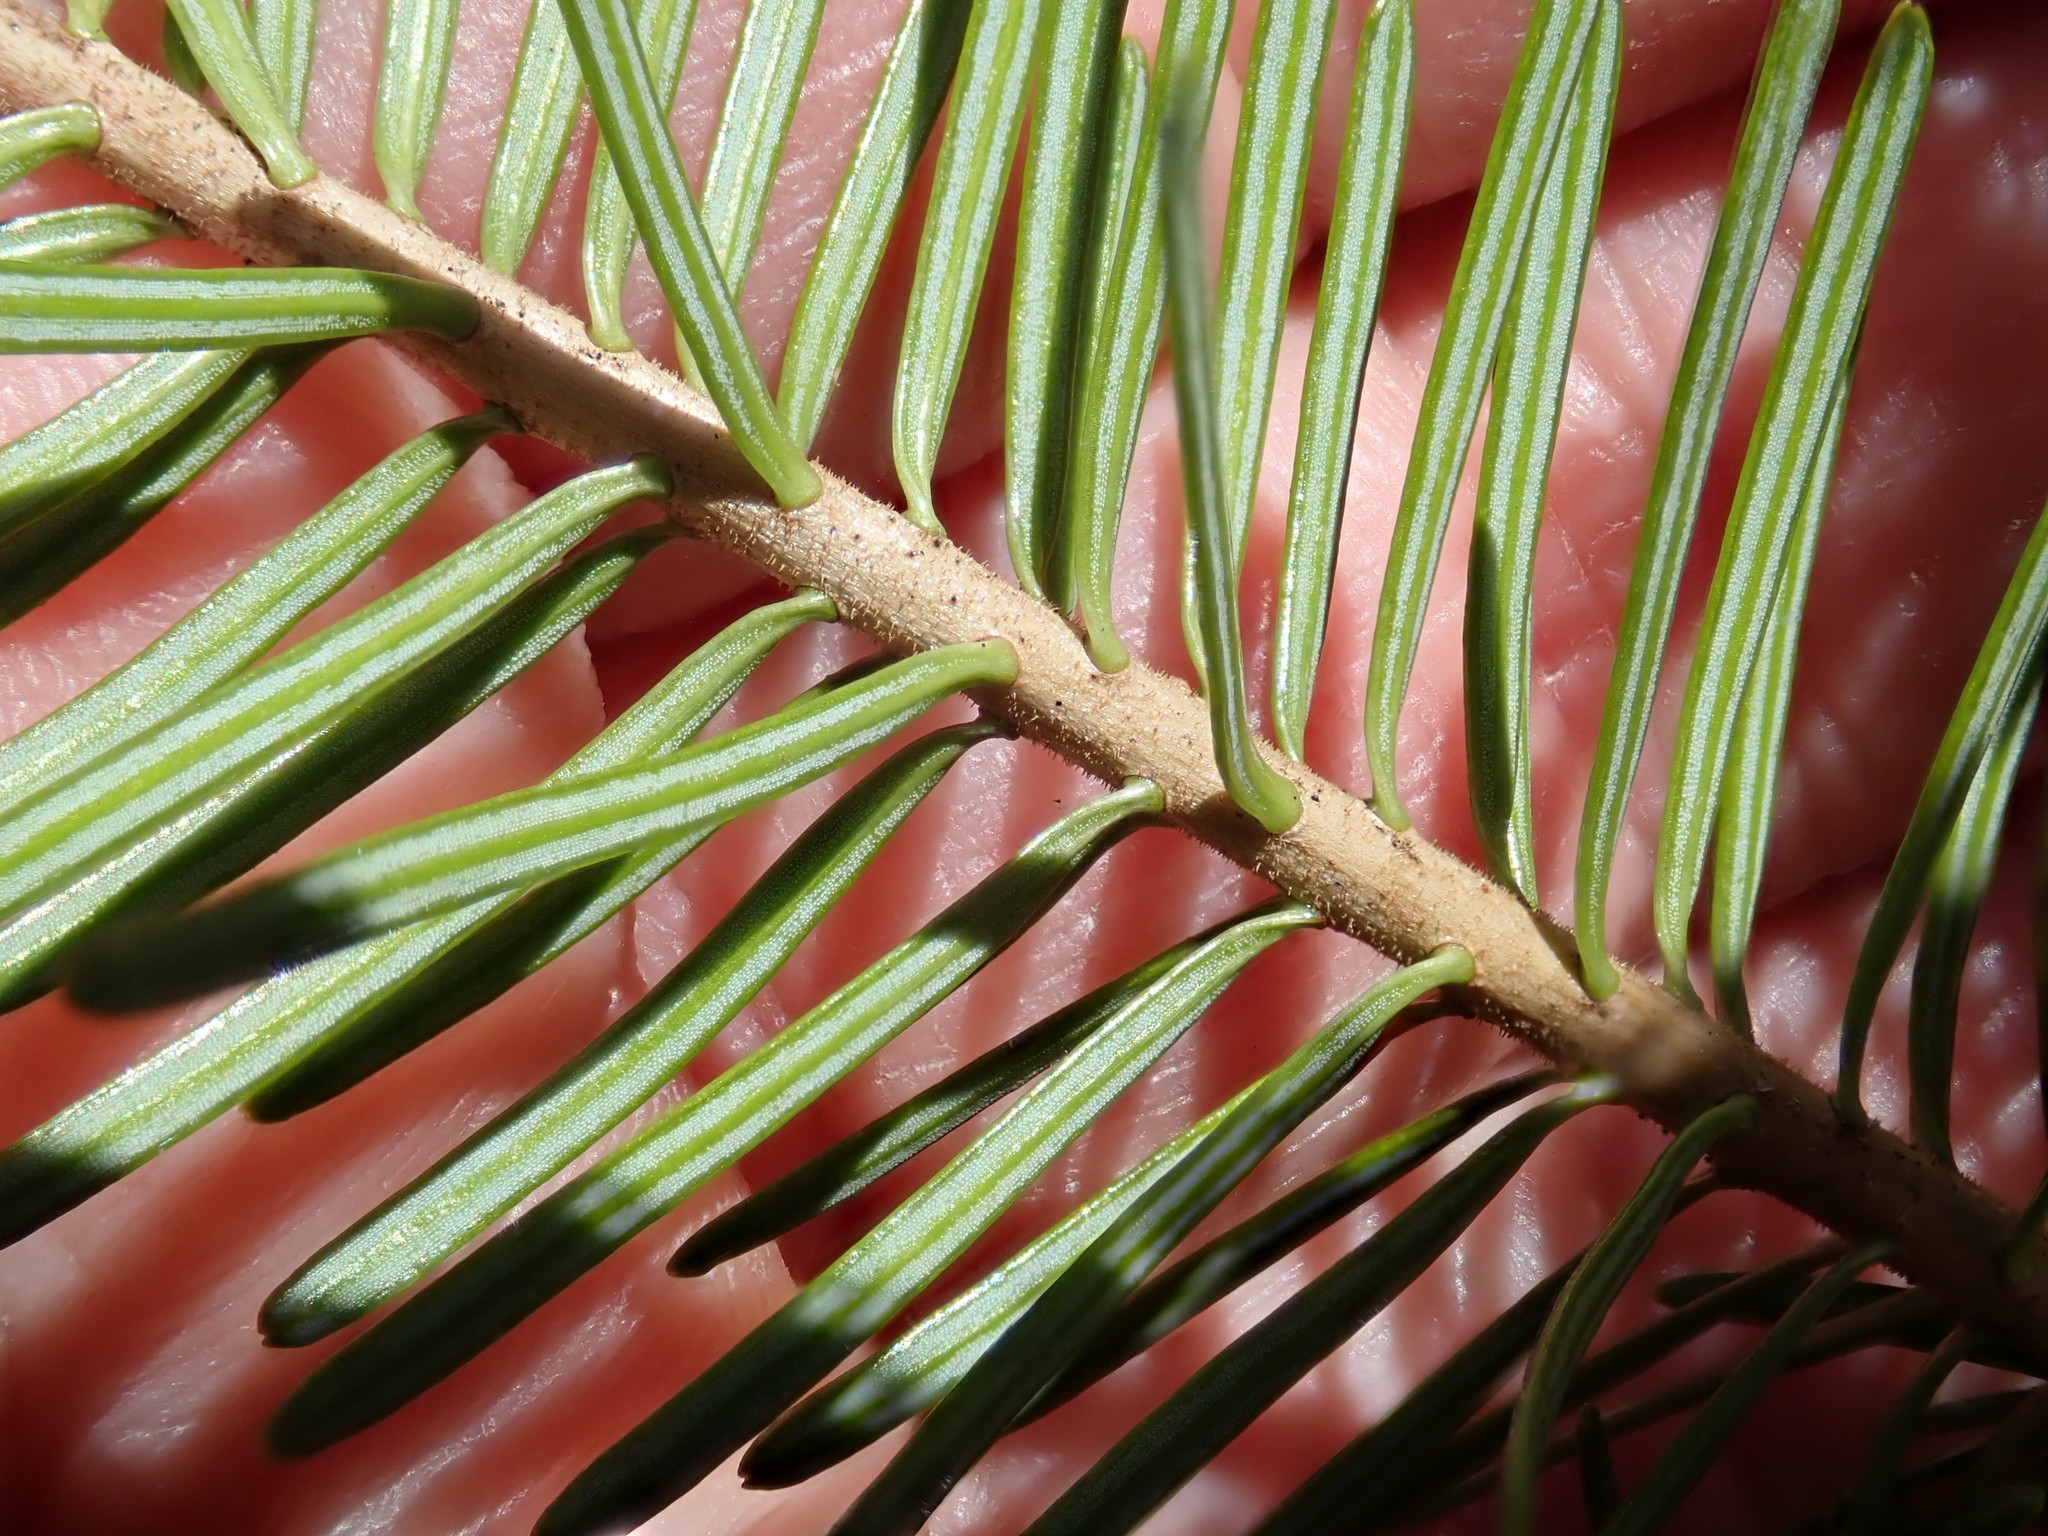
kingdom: Plantae
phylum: Tracheophyta
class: Pinopsida
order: Pinales
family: Pinaceae
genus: Abies
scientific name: Abies balsamea
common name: Balsam fir
